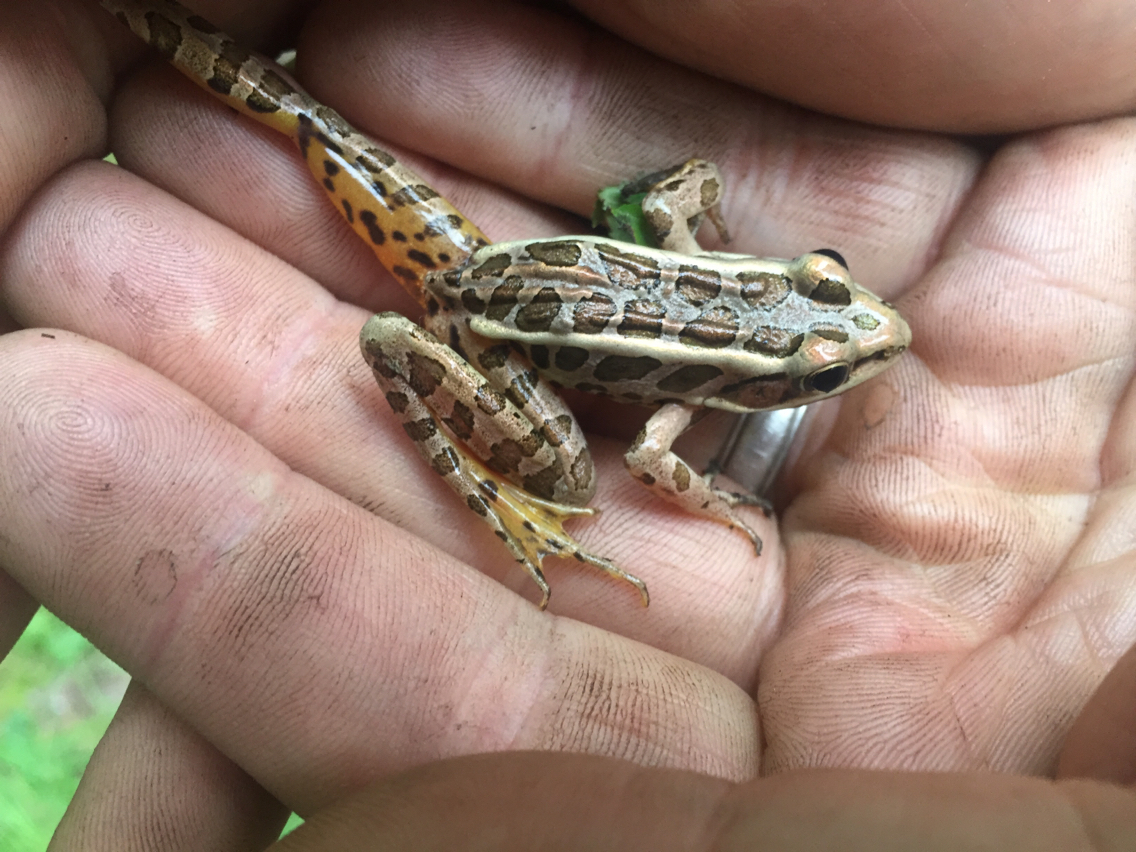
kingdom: Animalia
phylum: Chordata
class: Amphibia
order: Anura
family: Ranidae
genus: Lithobates
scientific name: Lithobates palustris
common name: Pickerel frog
